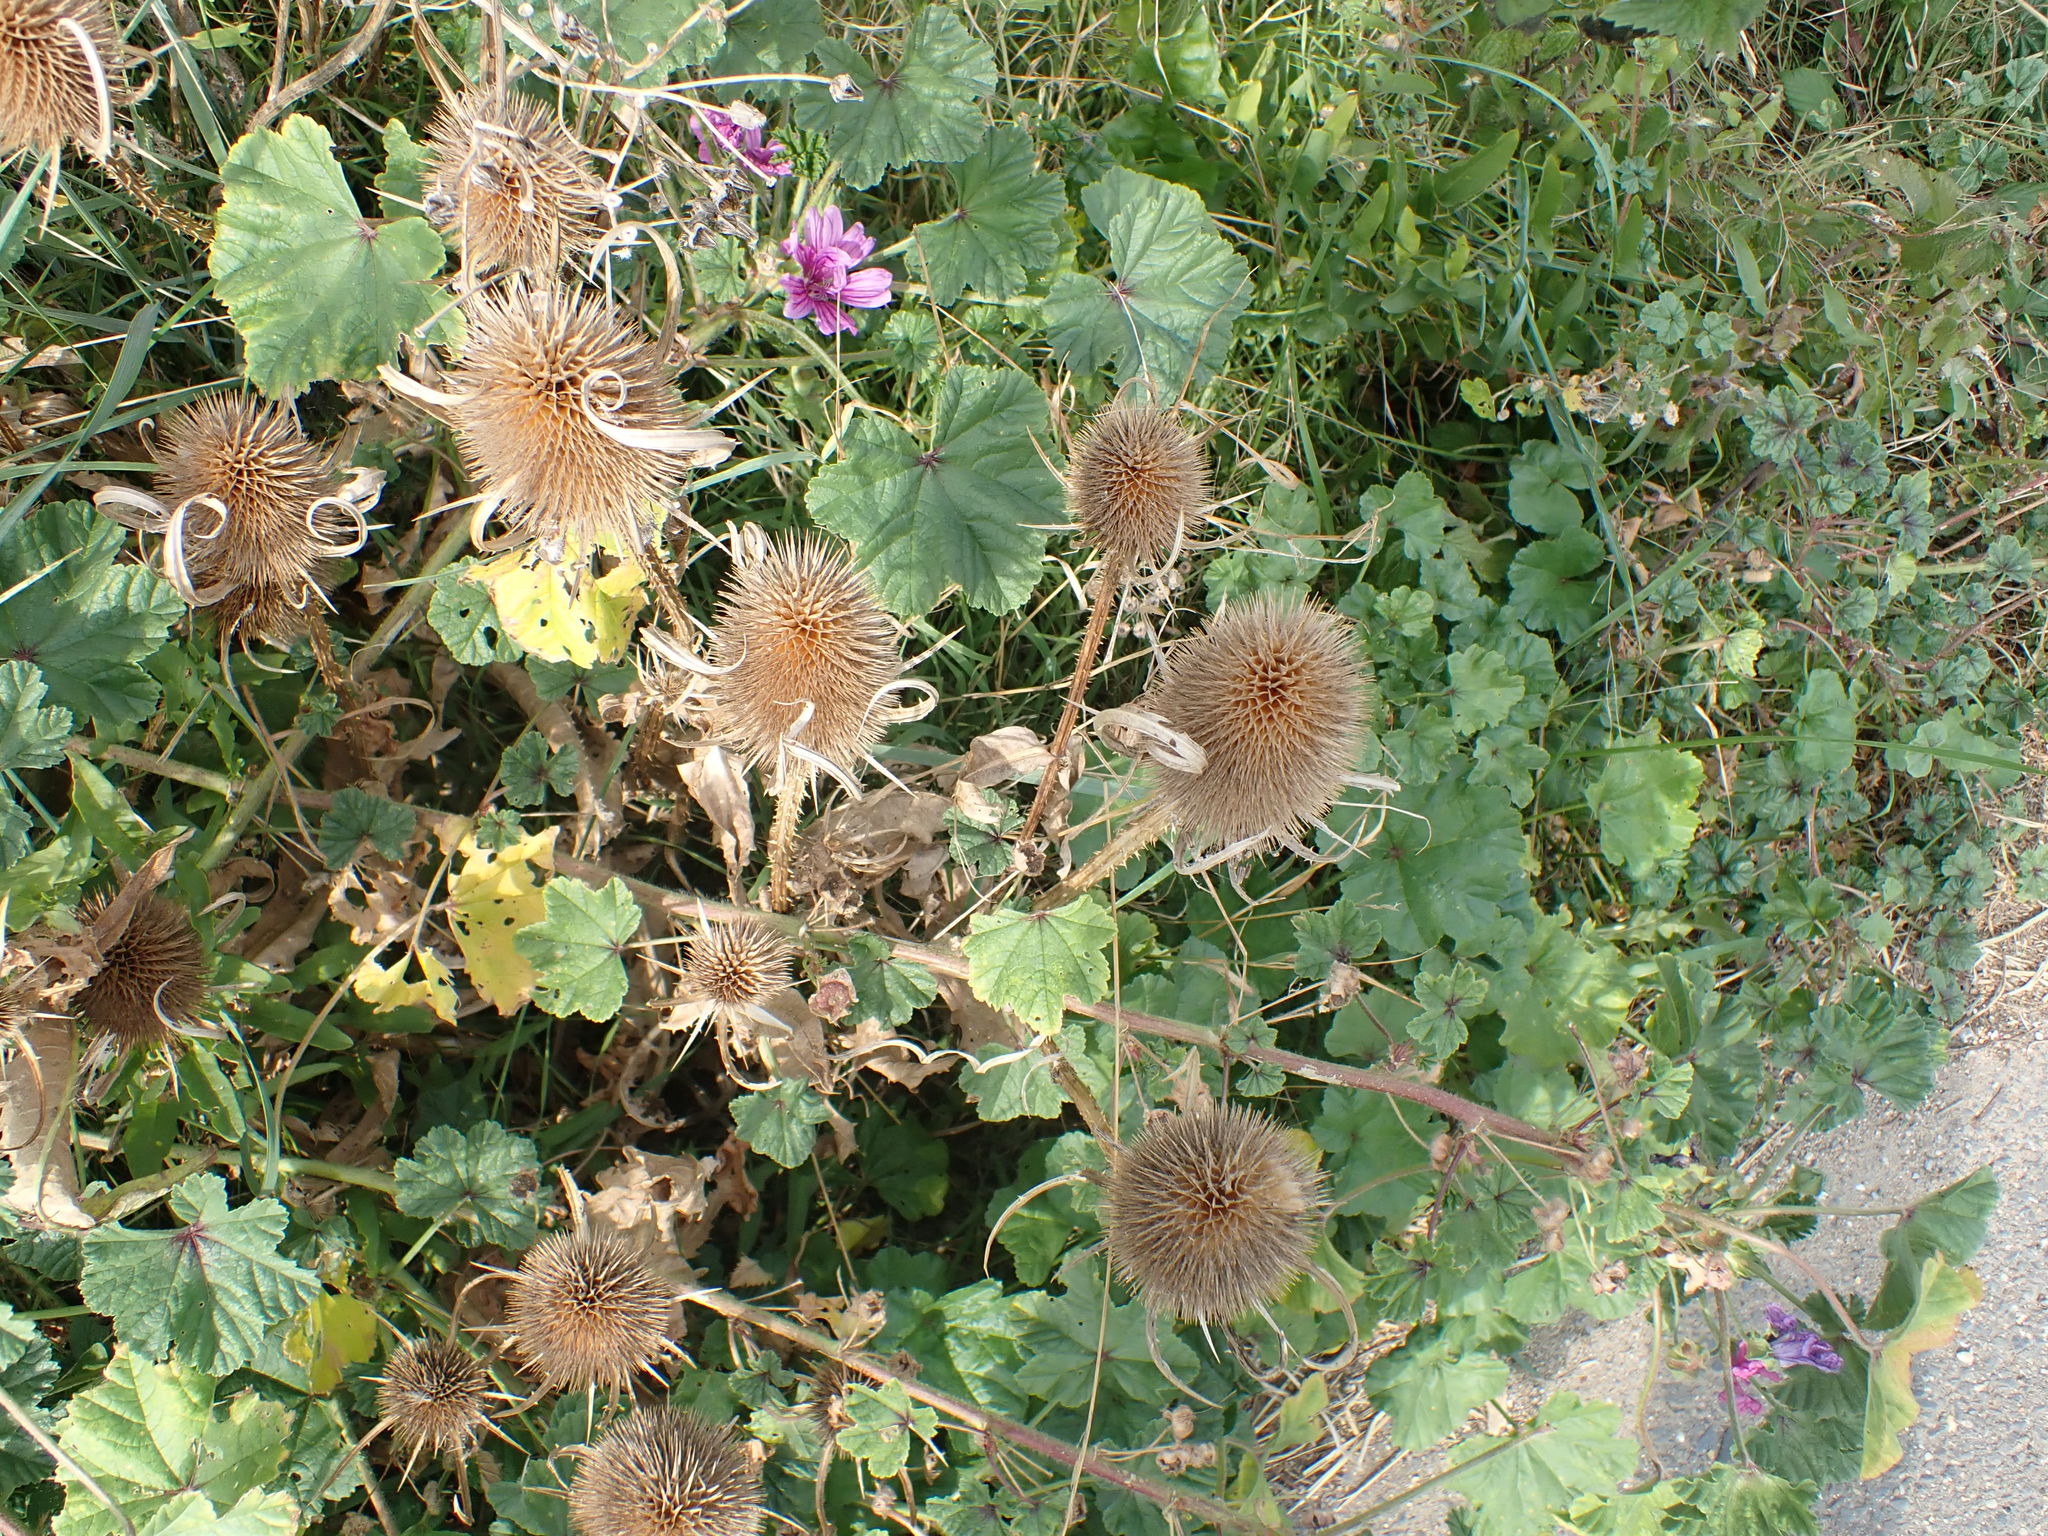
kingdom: Plantae
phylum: Tracheophyta
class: Magnoliopsida
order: Dipsacales
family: Caprifoliaceae
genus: Dipsacus
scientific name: Dipsacus fullonum
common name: Teasel
